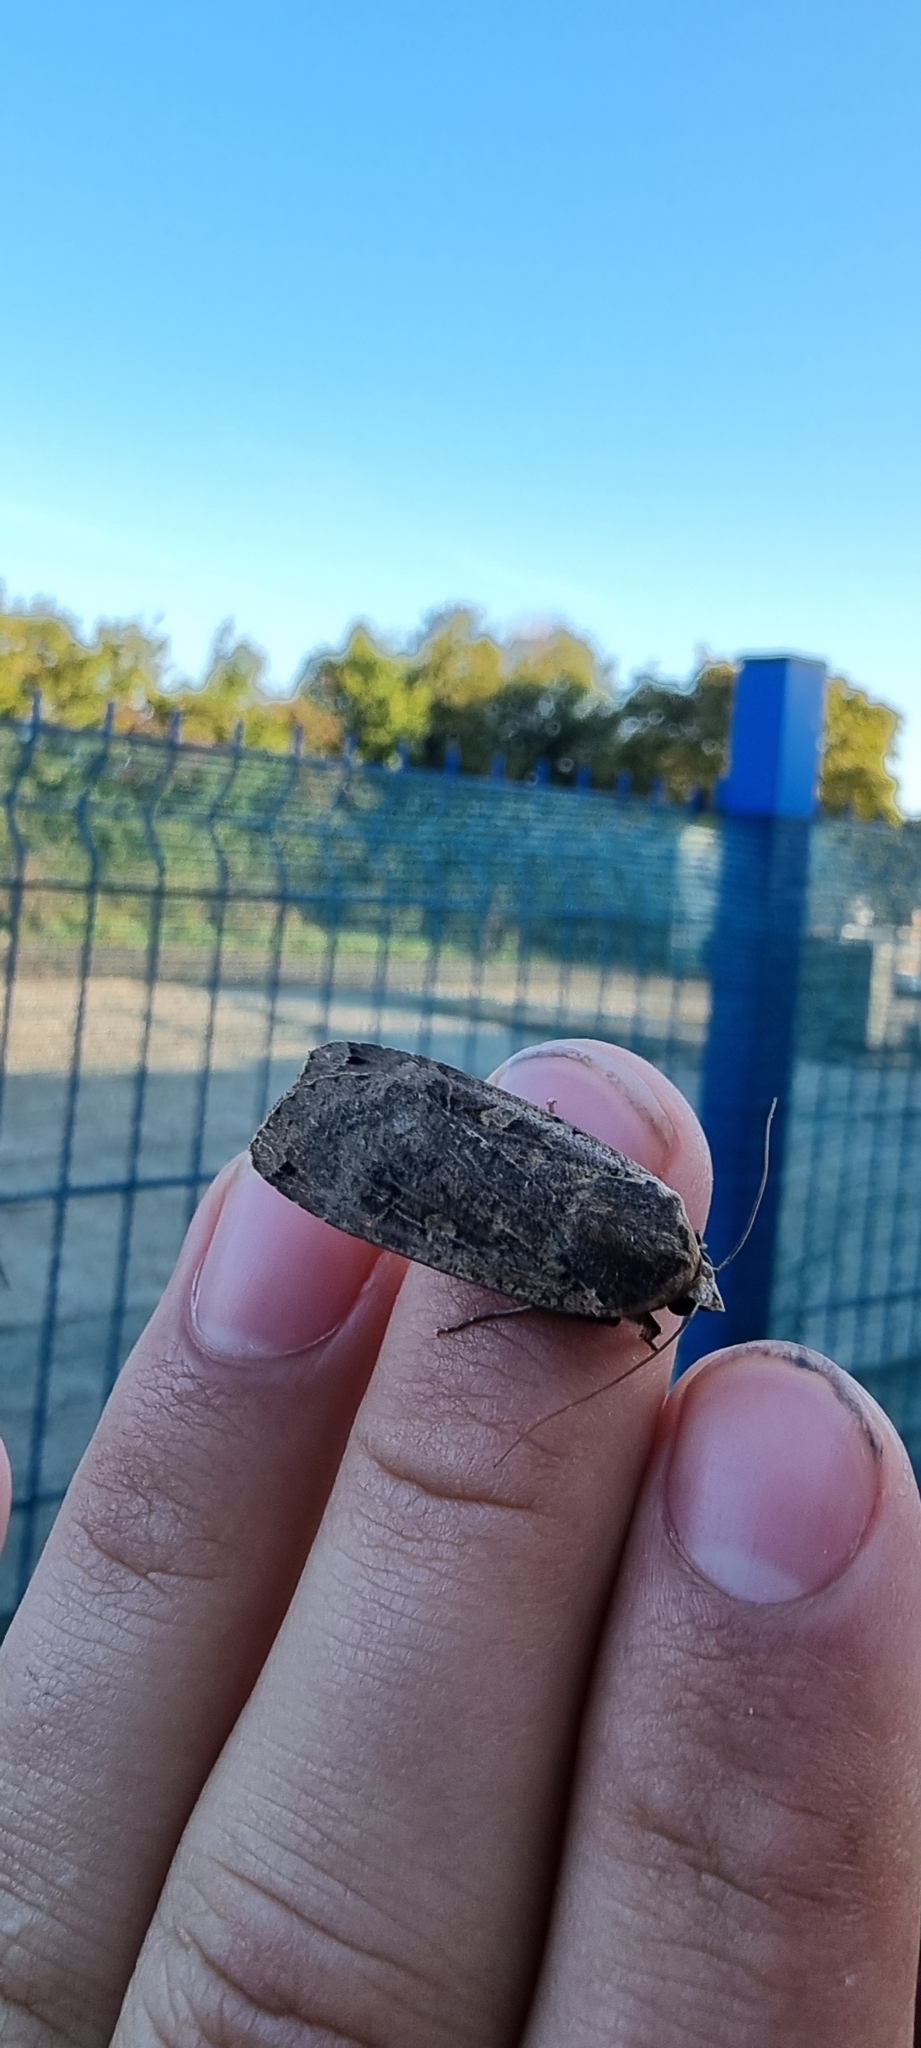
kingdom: Animalia
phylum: Arthropoda
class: Insecta
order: Lepidoptera
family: Noctuidae
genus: Noctua
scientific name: Noctua pronuba
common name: Large yellow underwing
